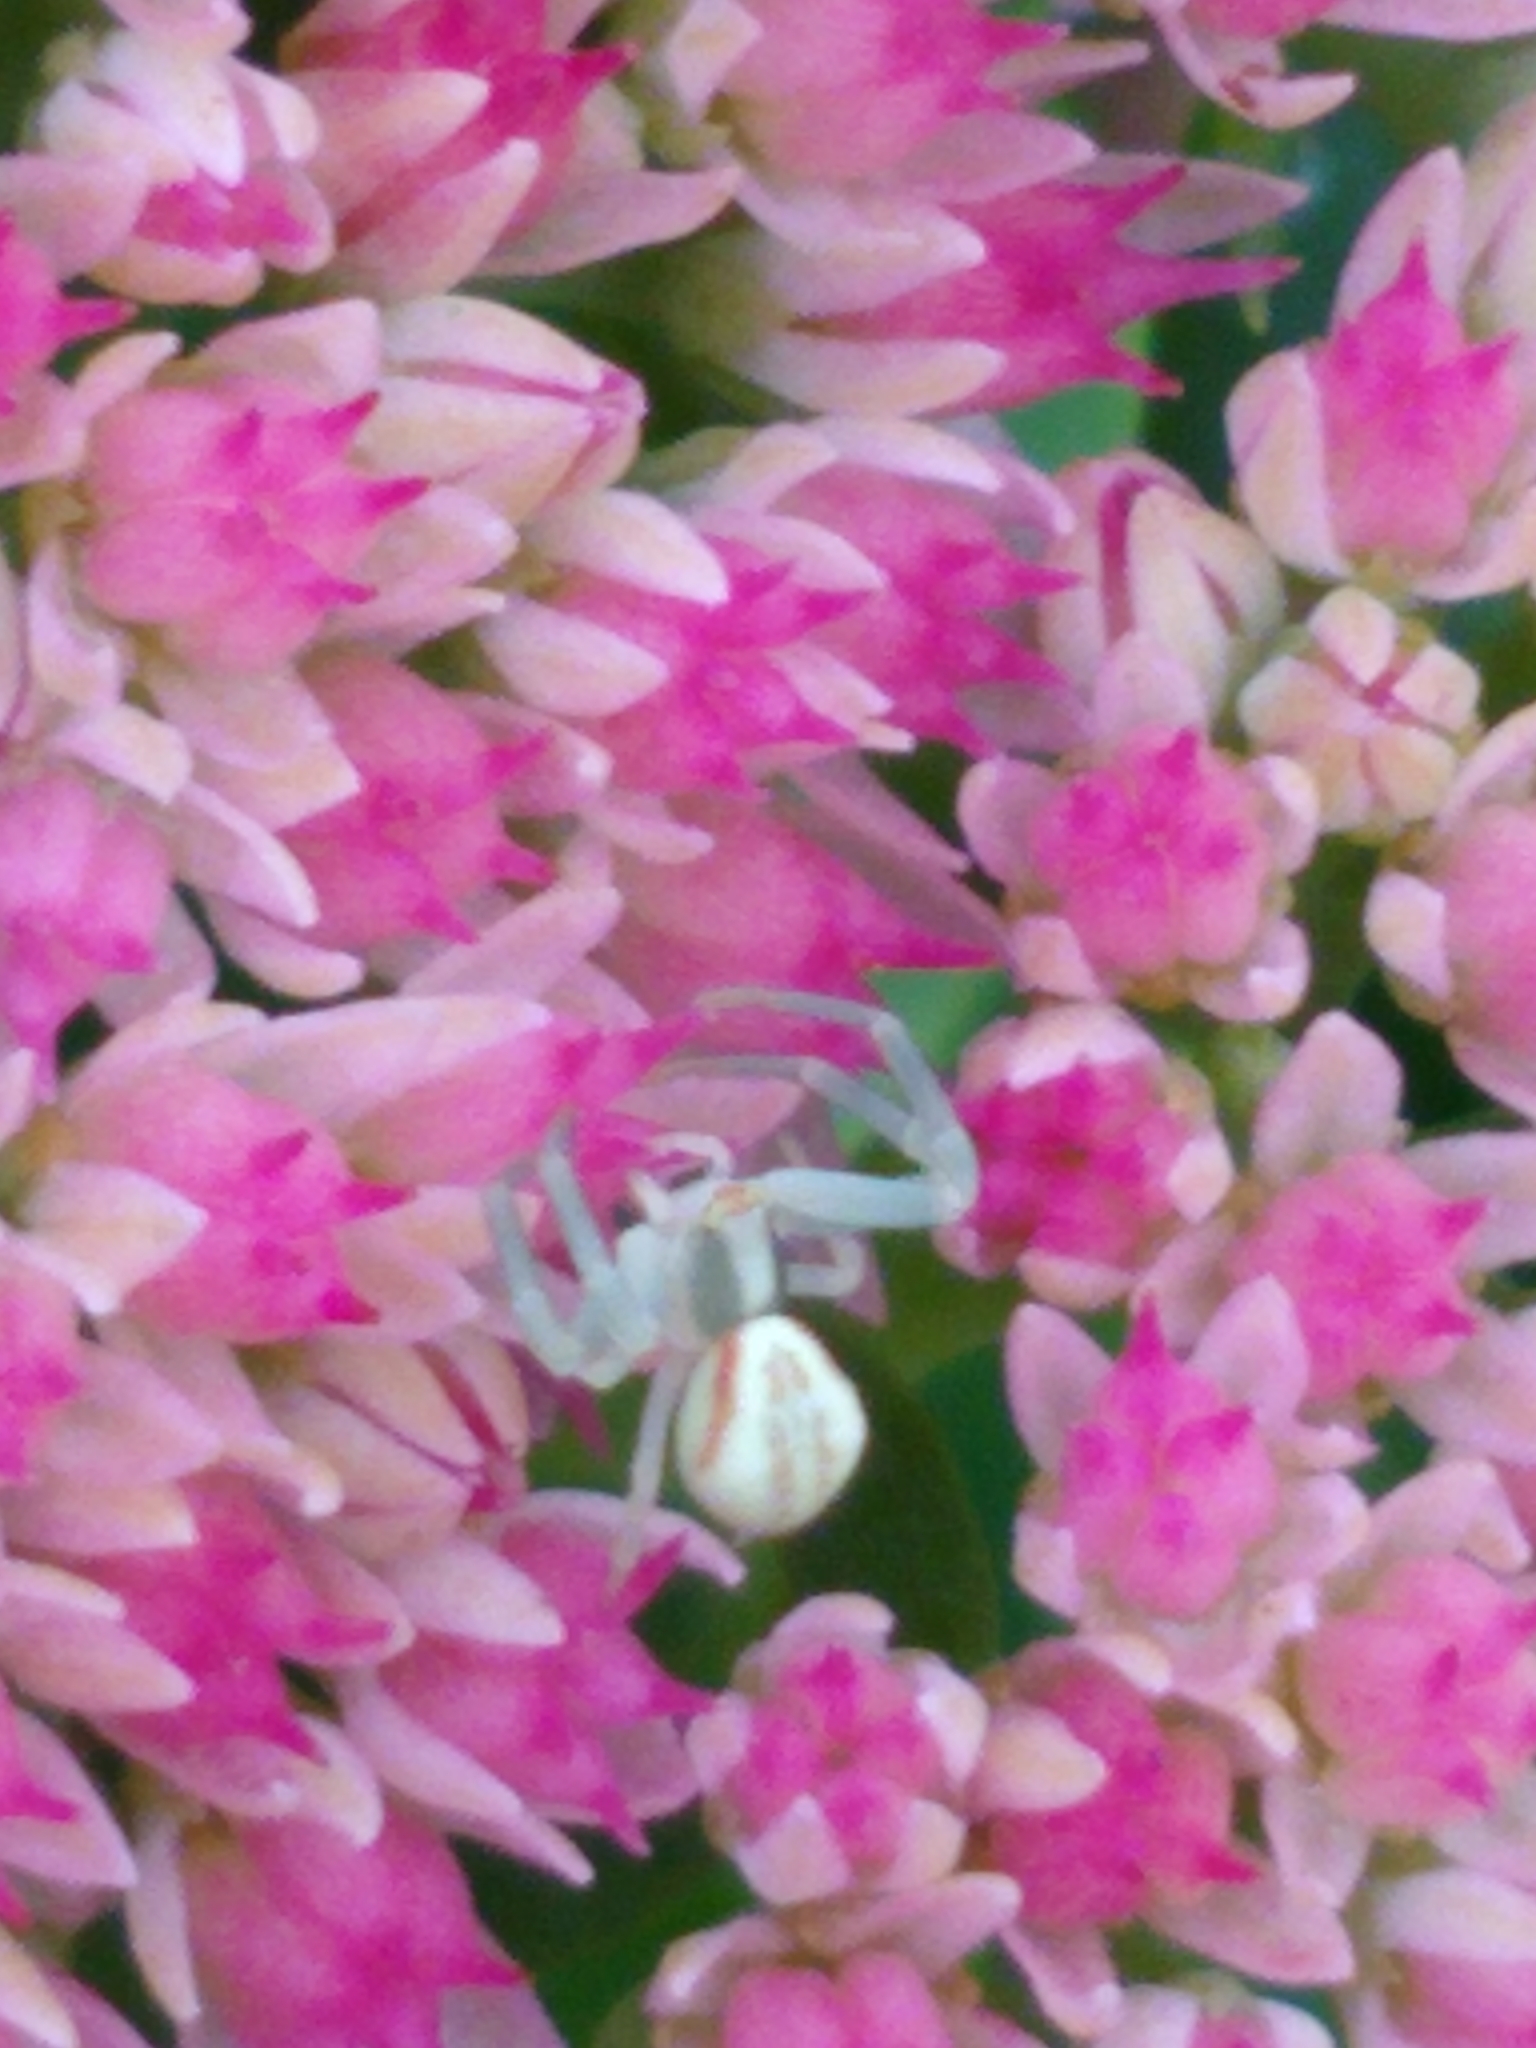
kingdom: Animalia
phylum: Arthropoda
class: Arachnida
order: Araneae
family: Thomisidae
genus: Misumena
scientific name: Misumena vatia
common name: Goldenrod crab spider
